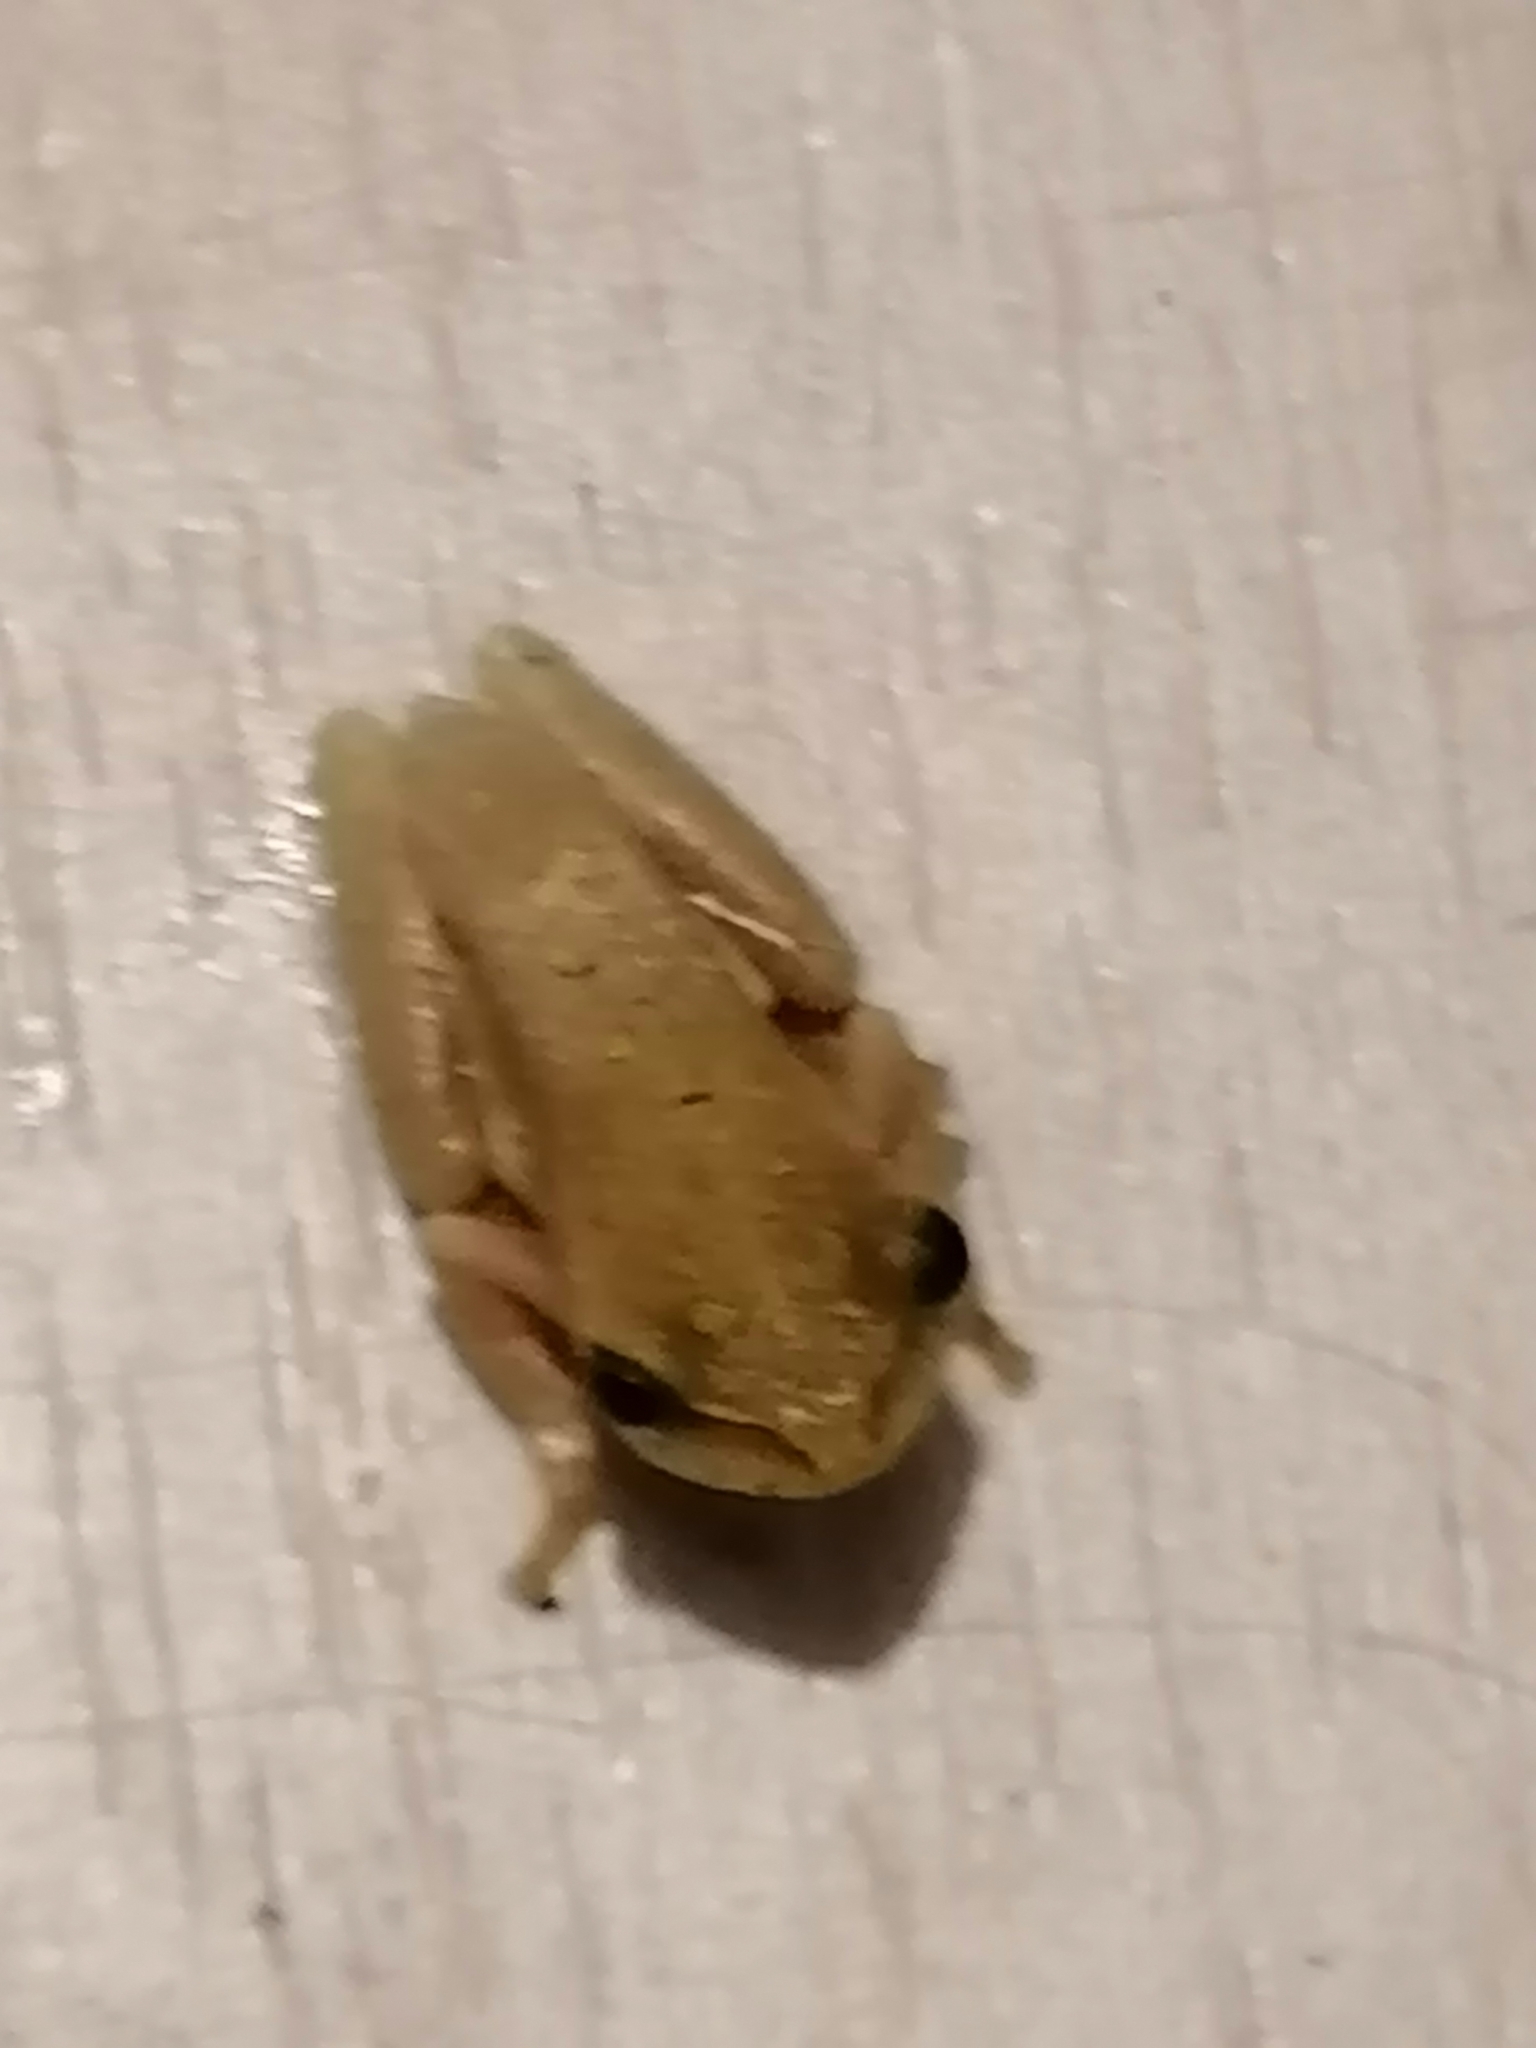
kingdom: Animalia
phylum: Chordata
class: Amphibia
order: Anura
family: Hyperoliidae
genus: Hyperolius
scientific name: Hyperolius marmoratus
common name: Painted reed frog
